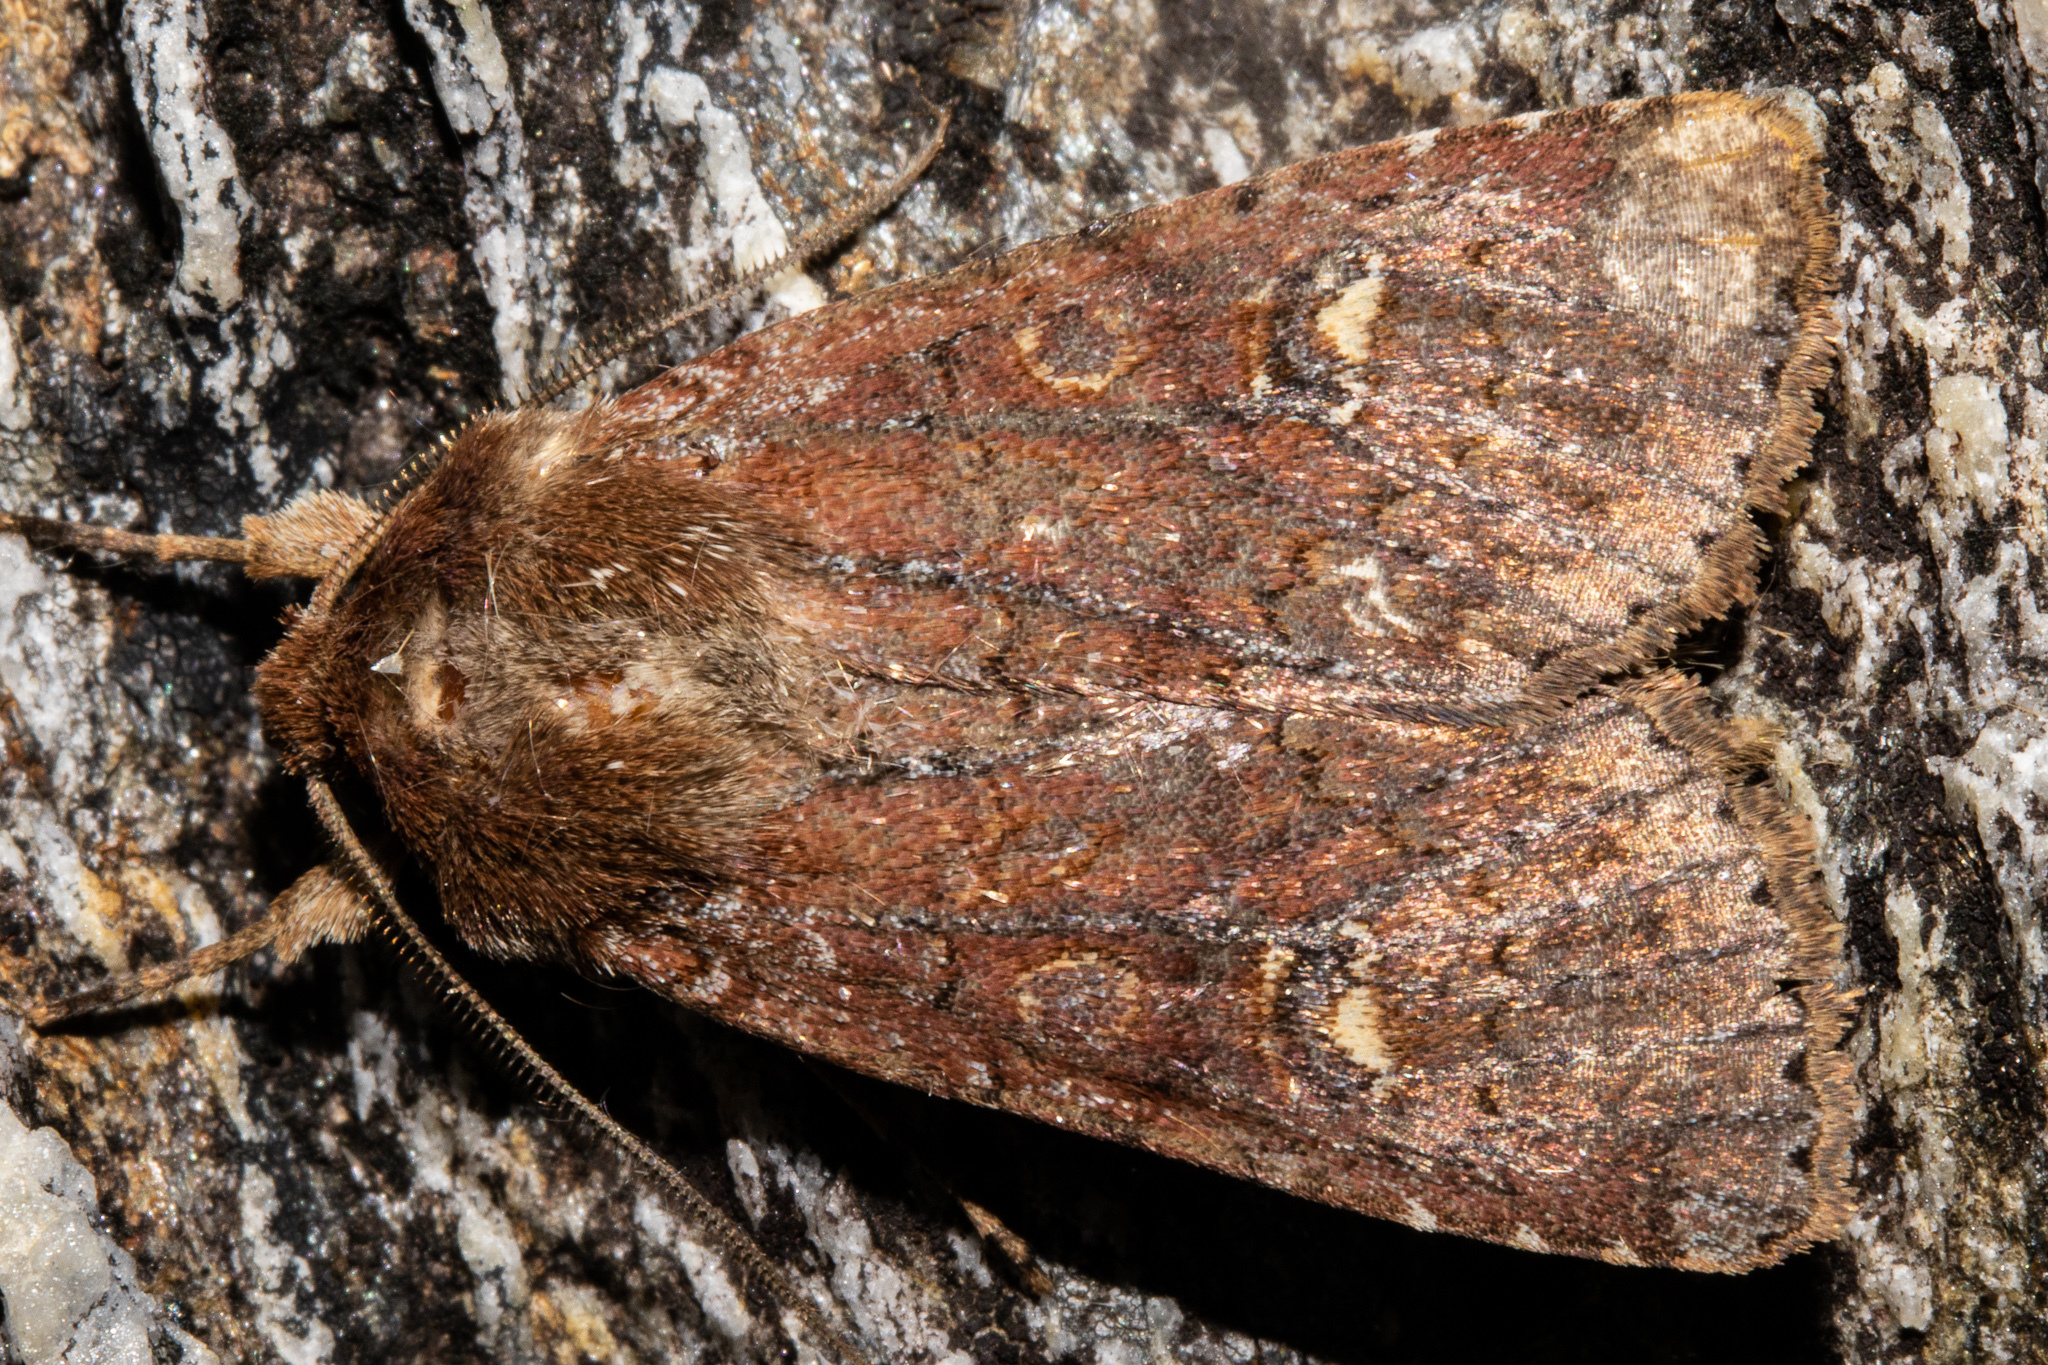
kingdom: Animalia
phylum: Arthropoda
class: Insecta
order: Lepidoptera
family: Noctuidae
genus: Ichneutica
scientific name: Ichneutica agorastis
